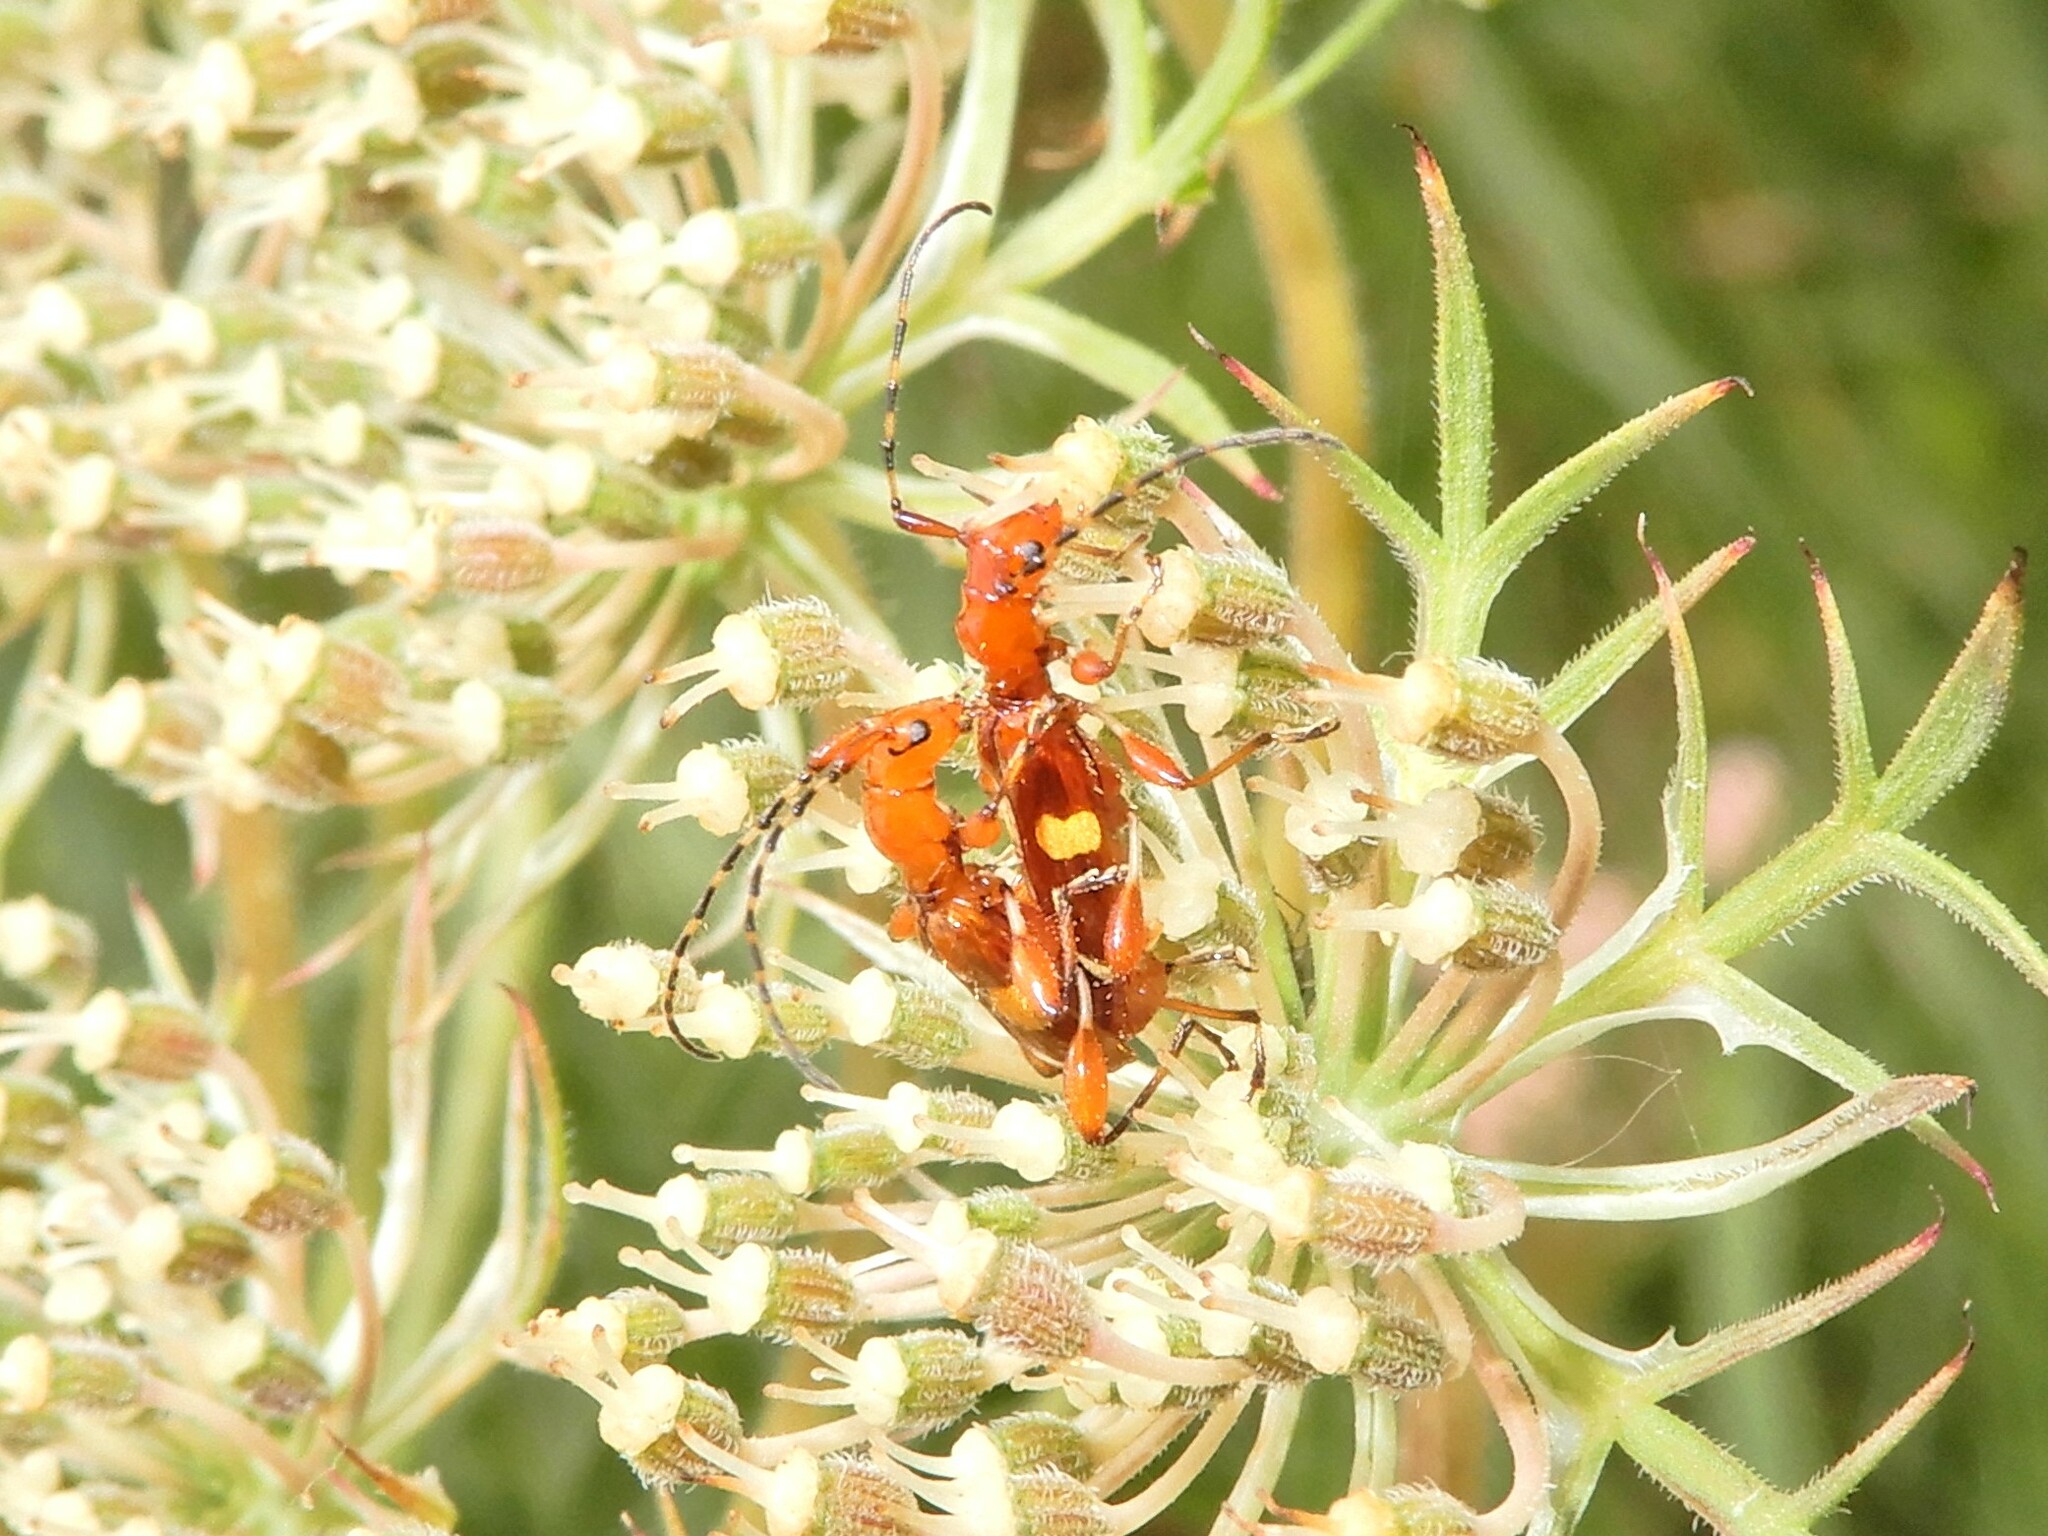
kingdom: Animalia
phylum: Arthropoda
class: Insecta
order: Coleoptera
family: Cerambycidae
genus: Zorion
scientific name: Zorion guttigerum
